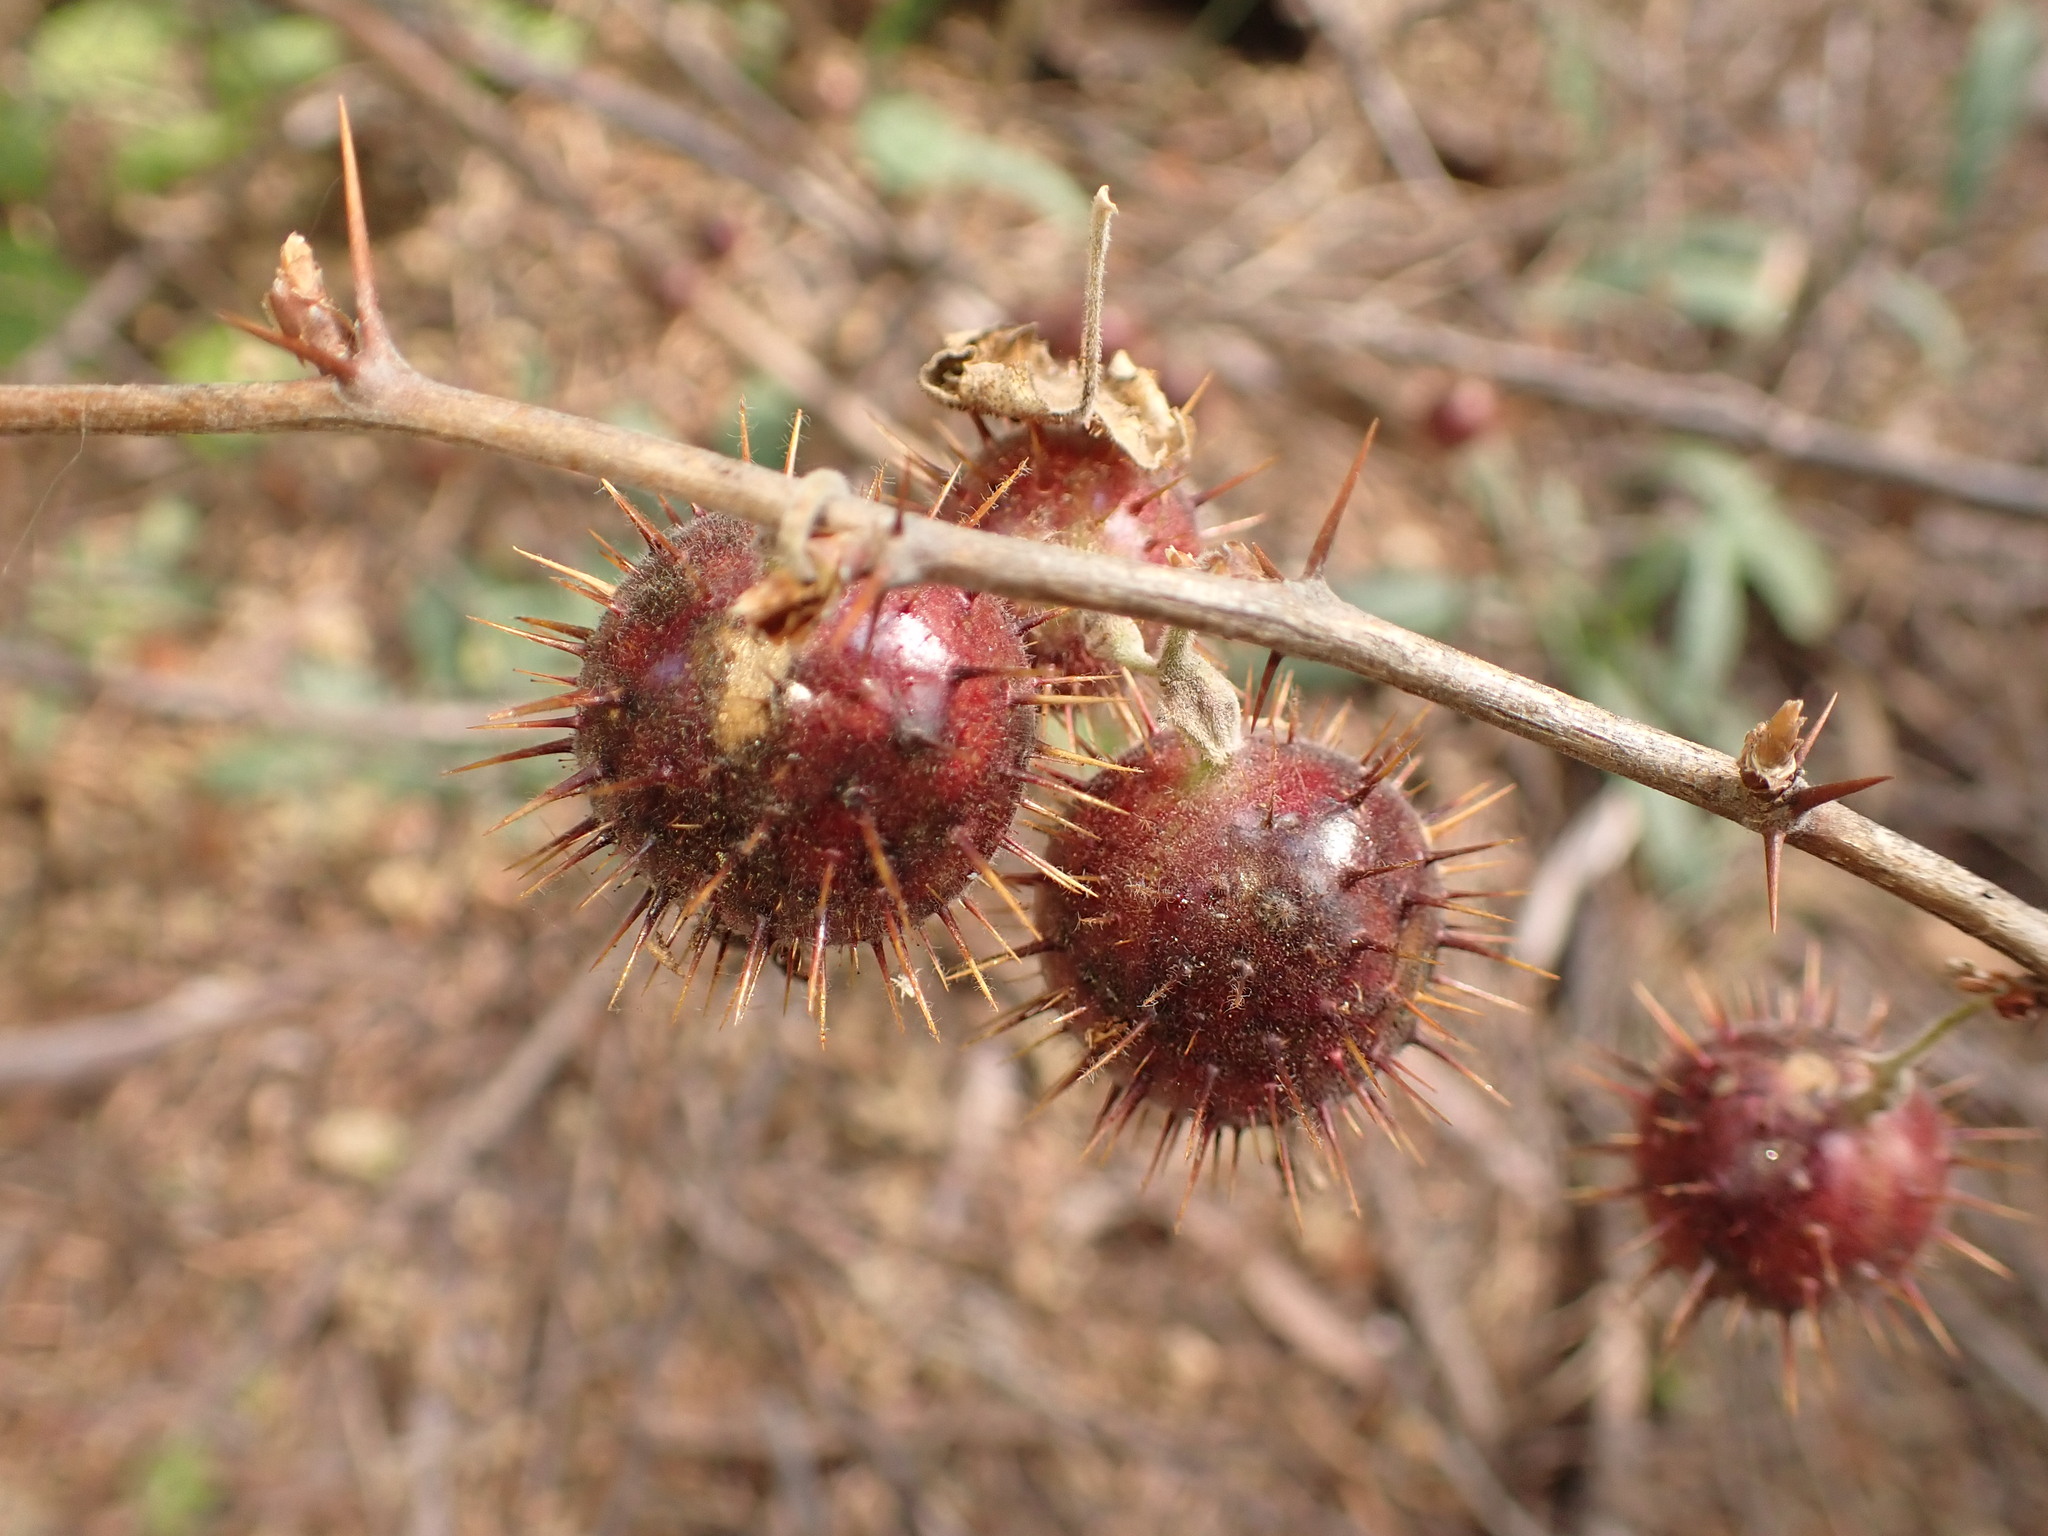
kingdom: Plantae
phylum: Tracheophyta
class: Magnoliopsida
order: Saxifragales
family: Grossulariaceae
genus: Ribes
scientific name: Ribes roezlii
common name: Sierra gooseberry
